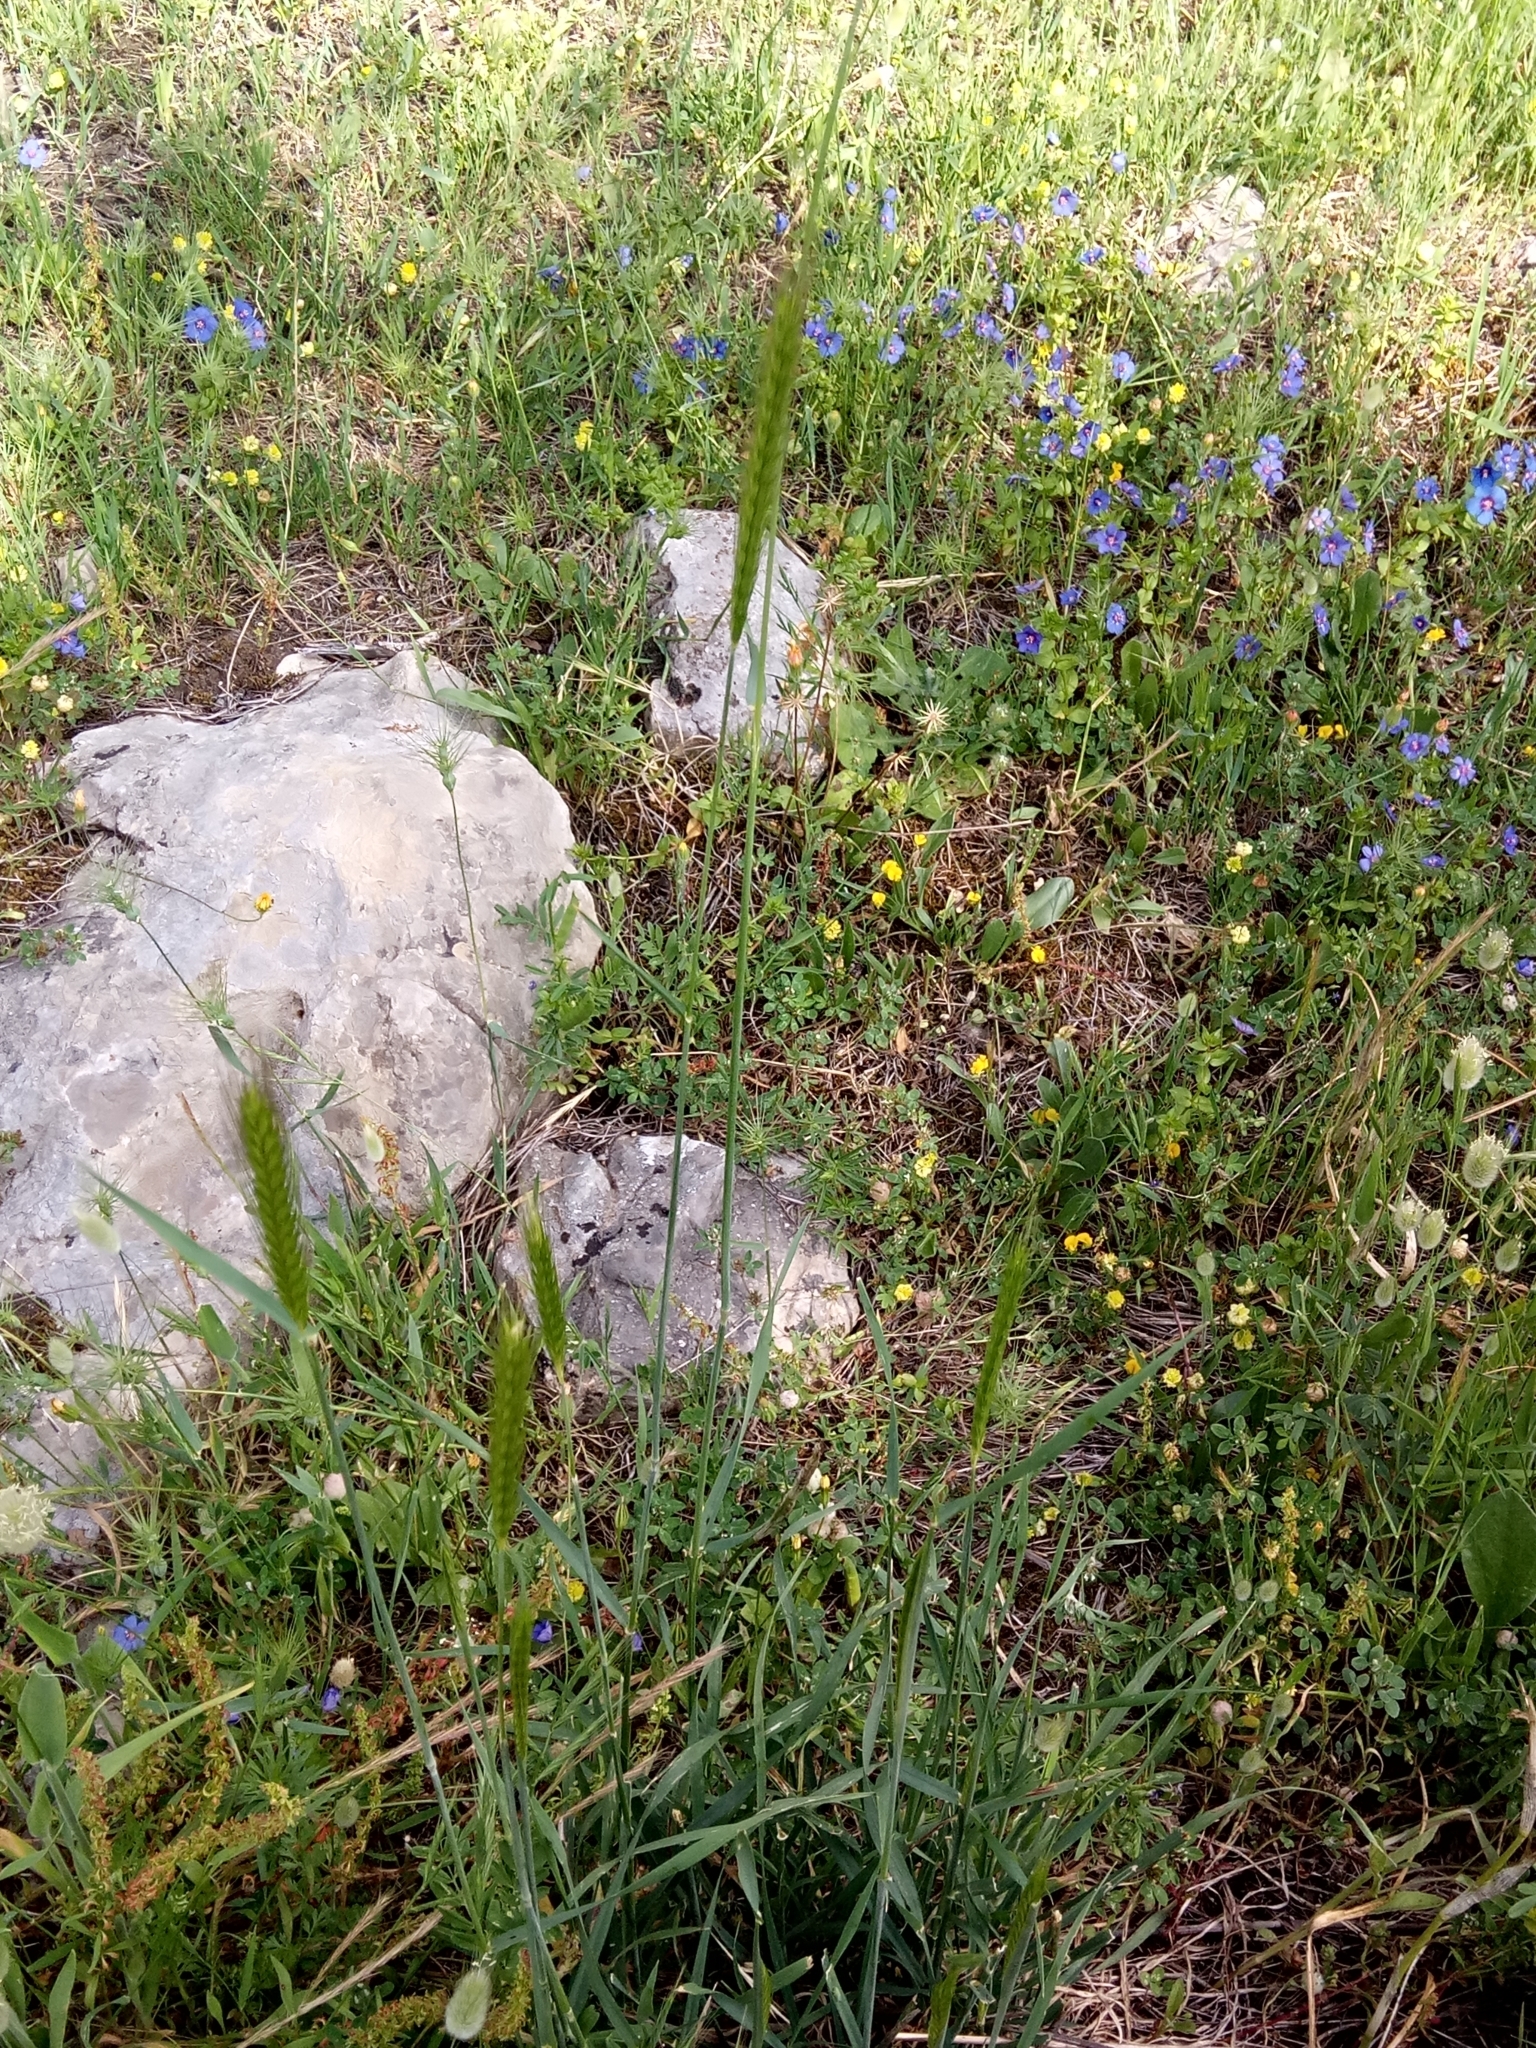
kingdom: Plantae
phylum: Tracheophyta
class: Liliopsida
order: Poales
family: Poaceae
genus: Hordeum
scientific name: Hordeum bulbosum
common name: Bulbous barley
